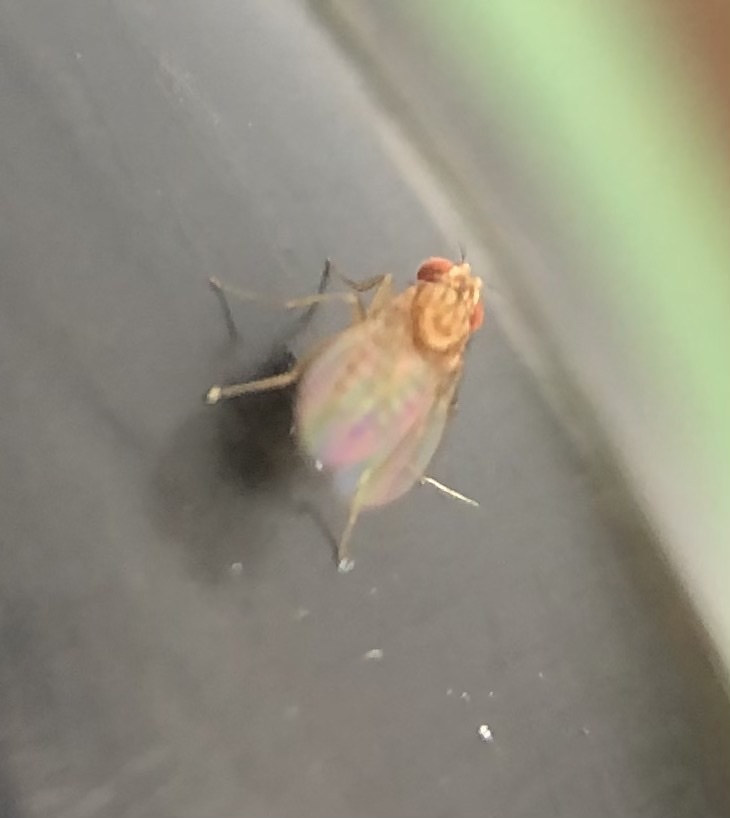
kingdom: Animalia
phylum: Arthropoda
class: Insecta
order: Diptera
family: Drosophilidae
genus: Drosophila
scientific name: Drosophila busckii
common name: Pomace fly
